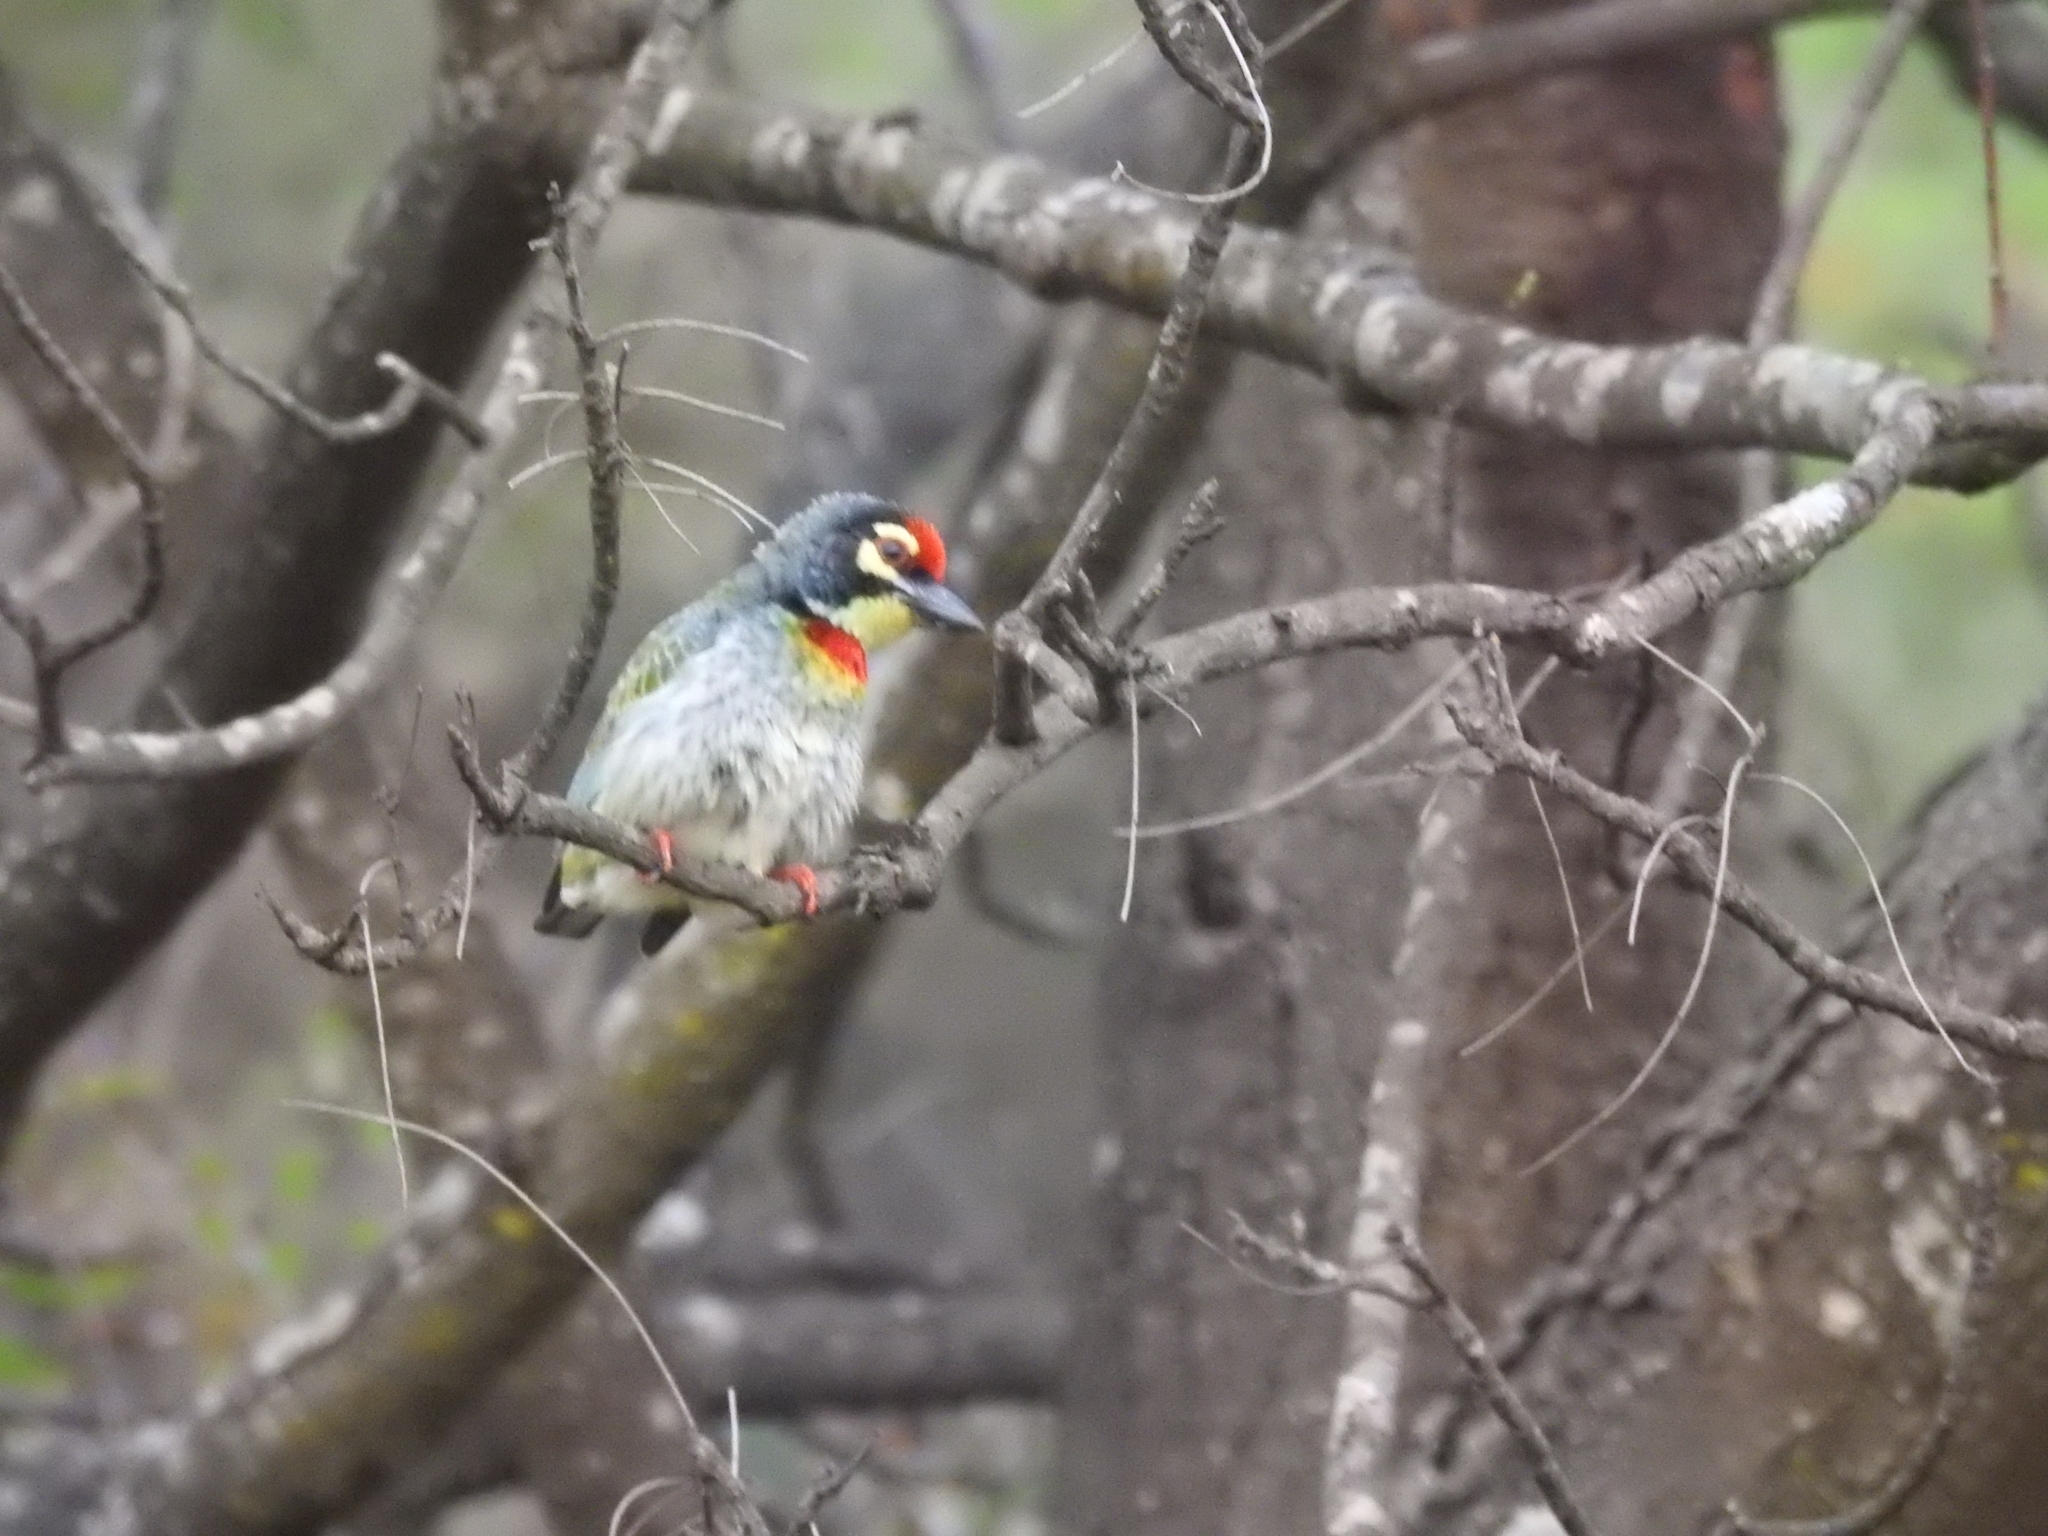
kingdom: Animalia
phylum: Chordata
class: Aves
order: Piciformes
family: Megalaimidae
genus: Psilopogon
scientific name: Psilopogon haemacephalus
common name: Coppersmith barbet
